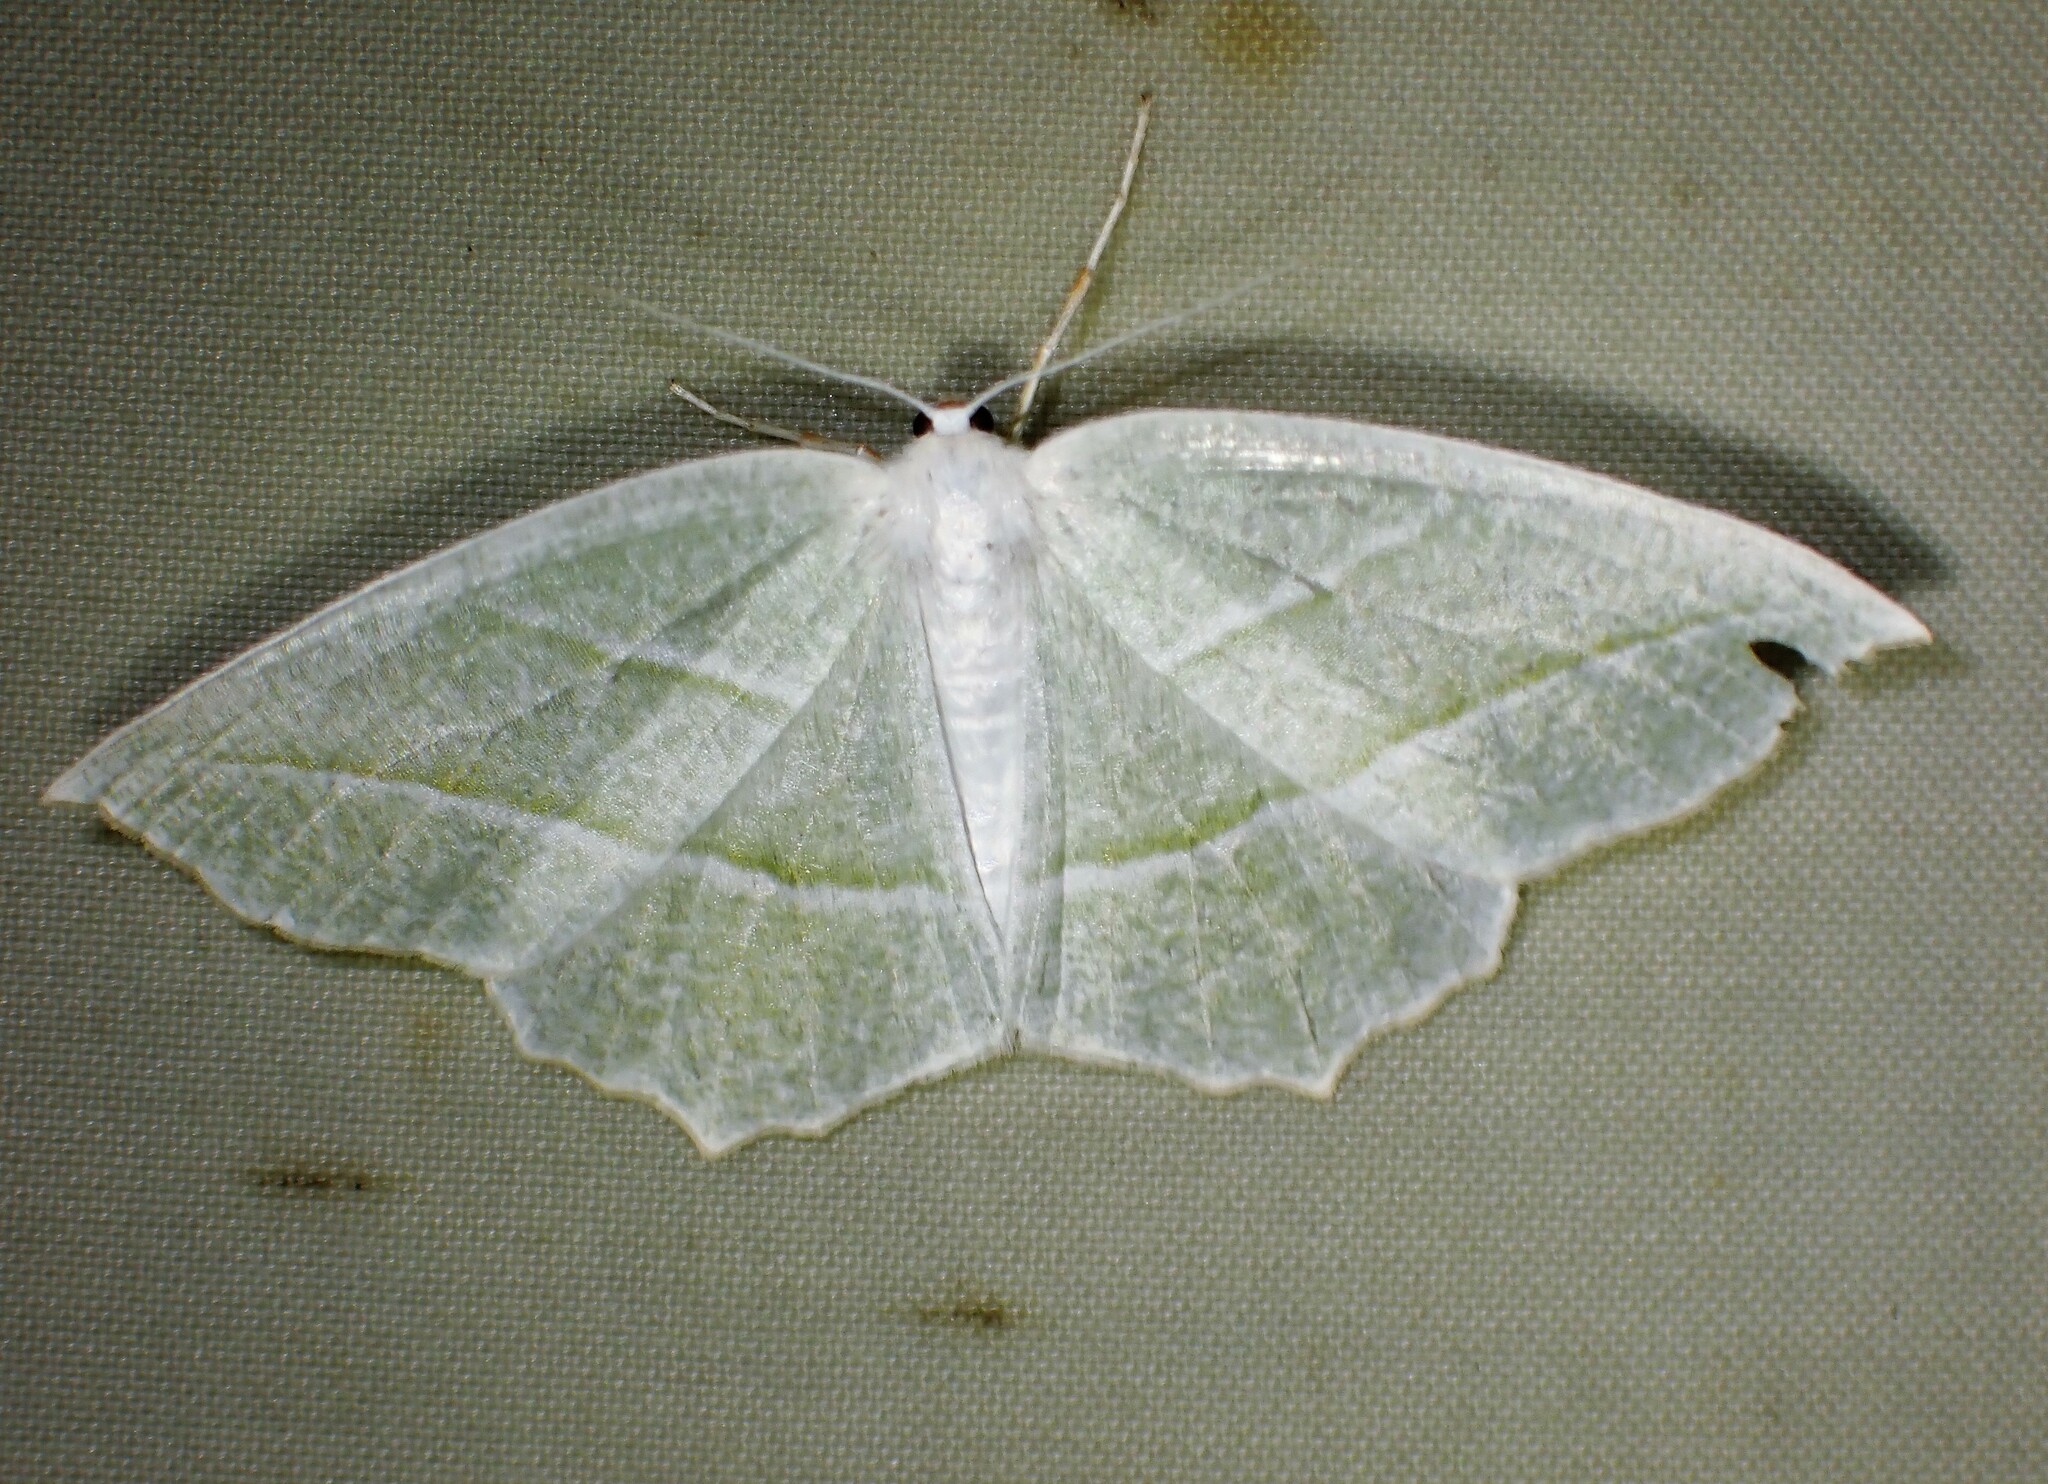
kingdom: Animalia
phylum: Arthropoda
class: Insecta
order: Lepidoptera
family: Geometridae
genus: Campaea
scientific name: Campaea perlata
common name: Fringed looper
